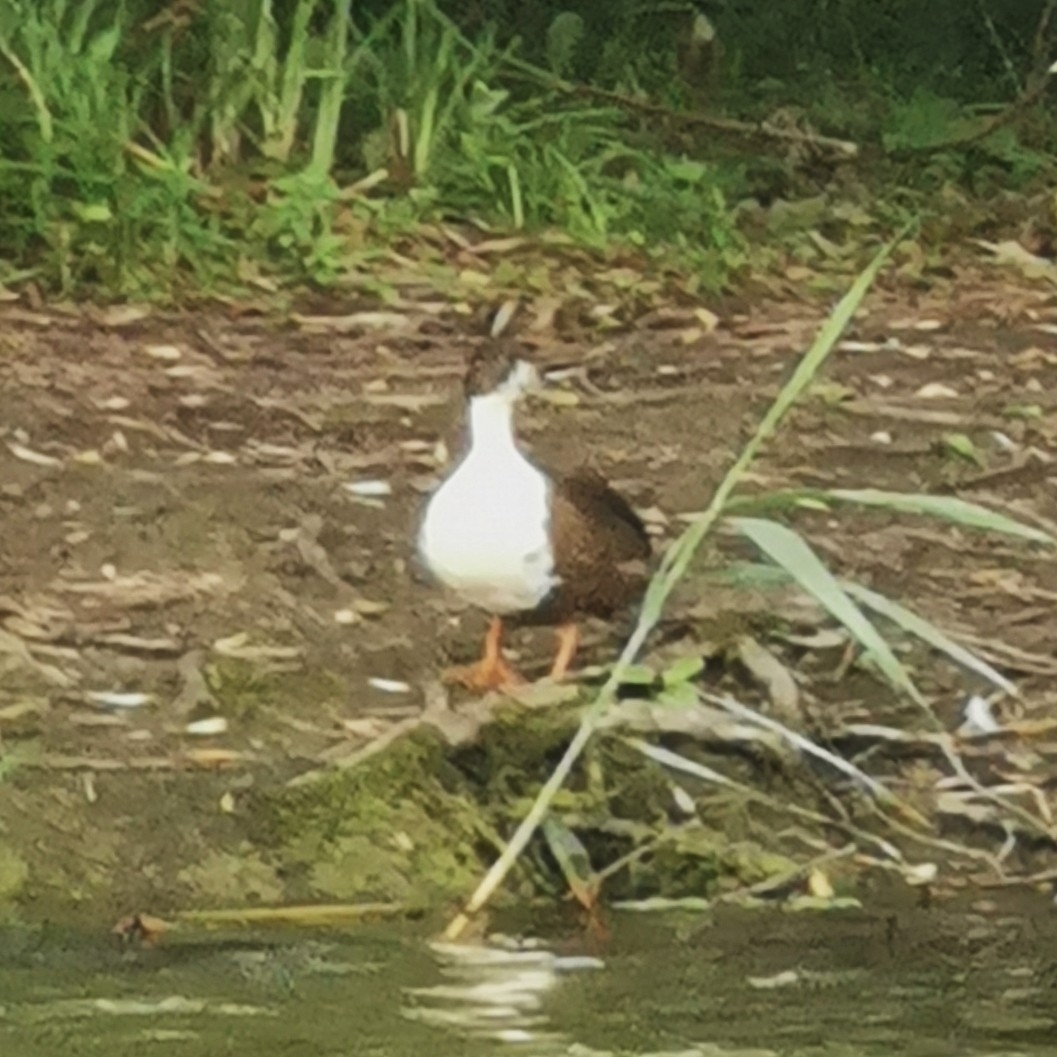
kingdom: Animalia
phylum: Chordata
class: Aves
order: Anseriformes
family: Anatidae
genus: Anas
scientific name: Anas platyrhynchos
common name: Mallard
